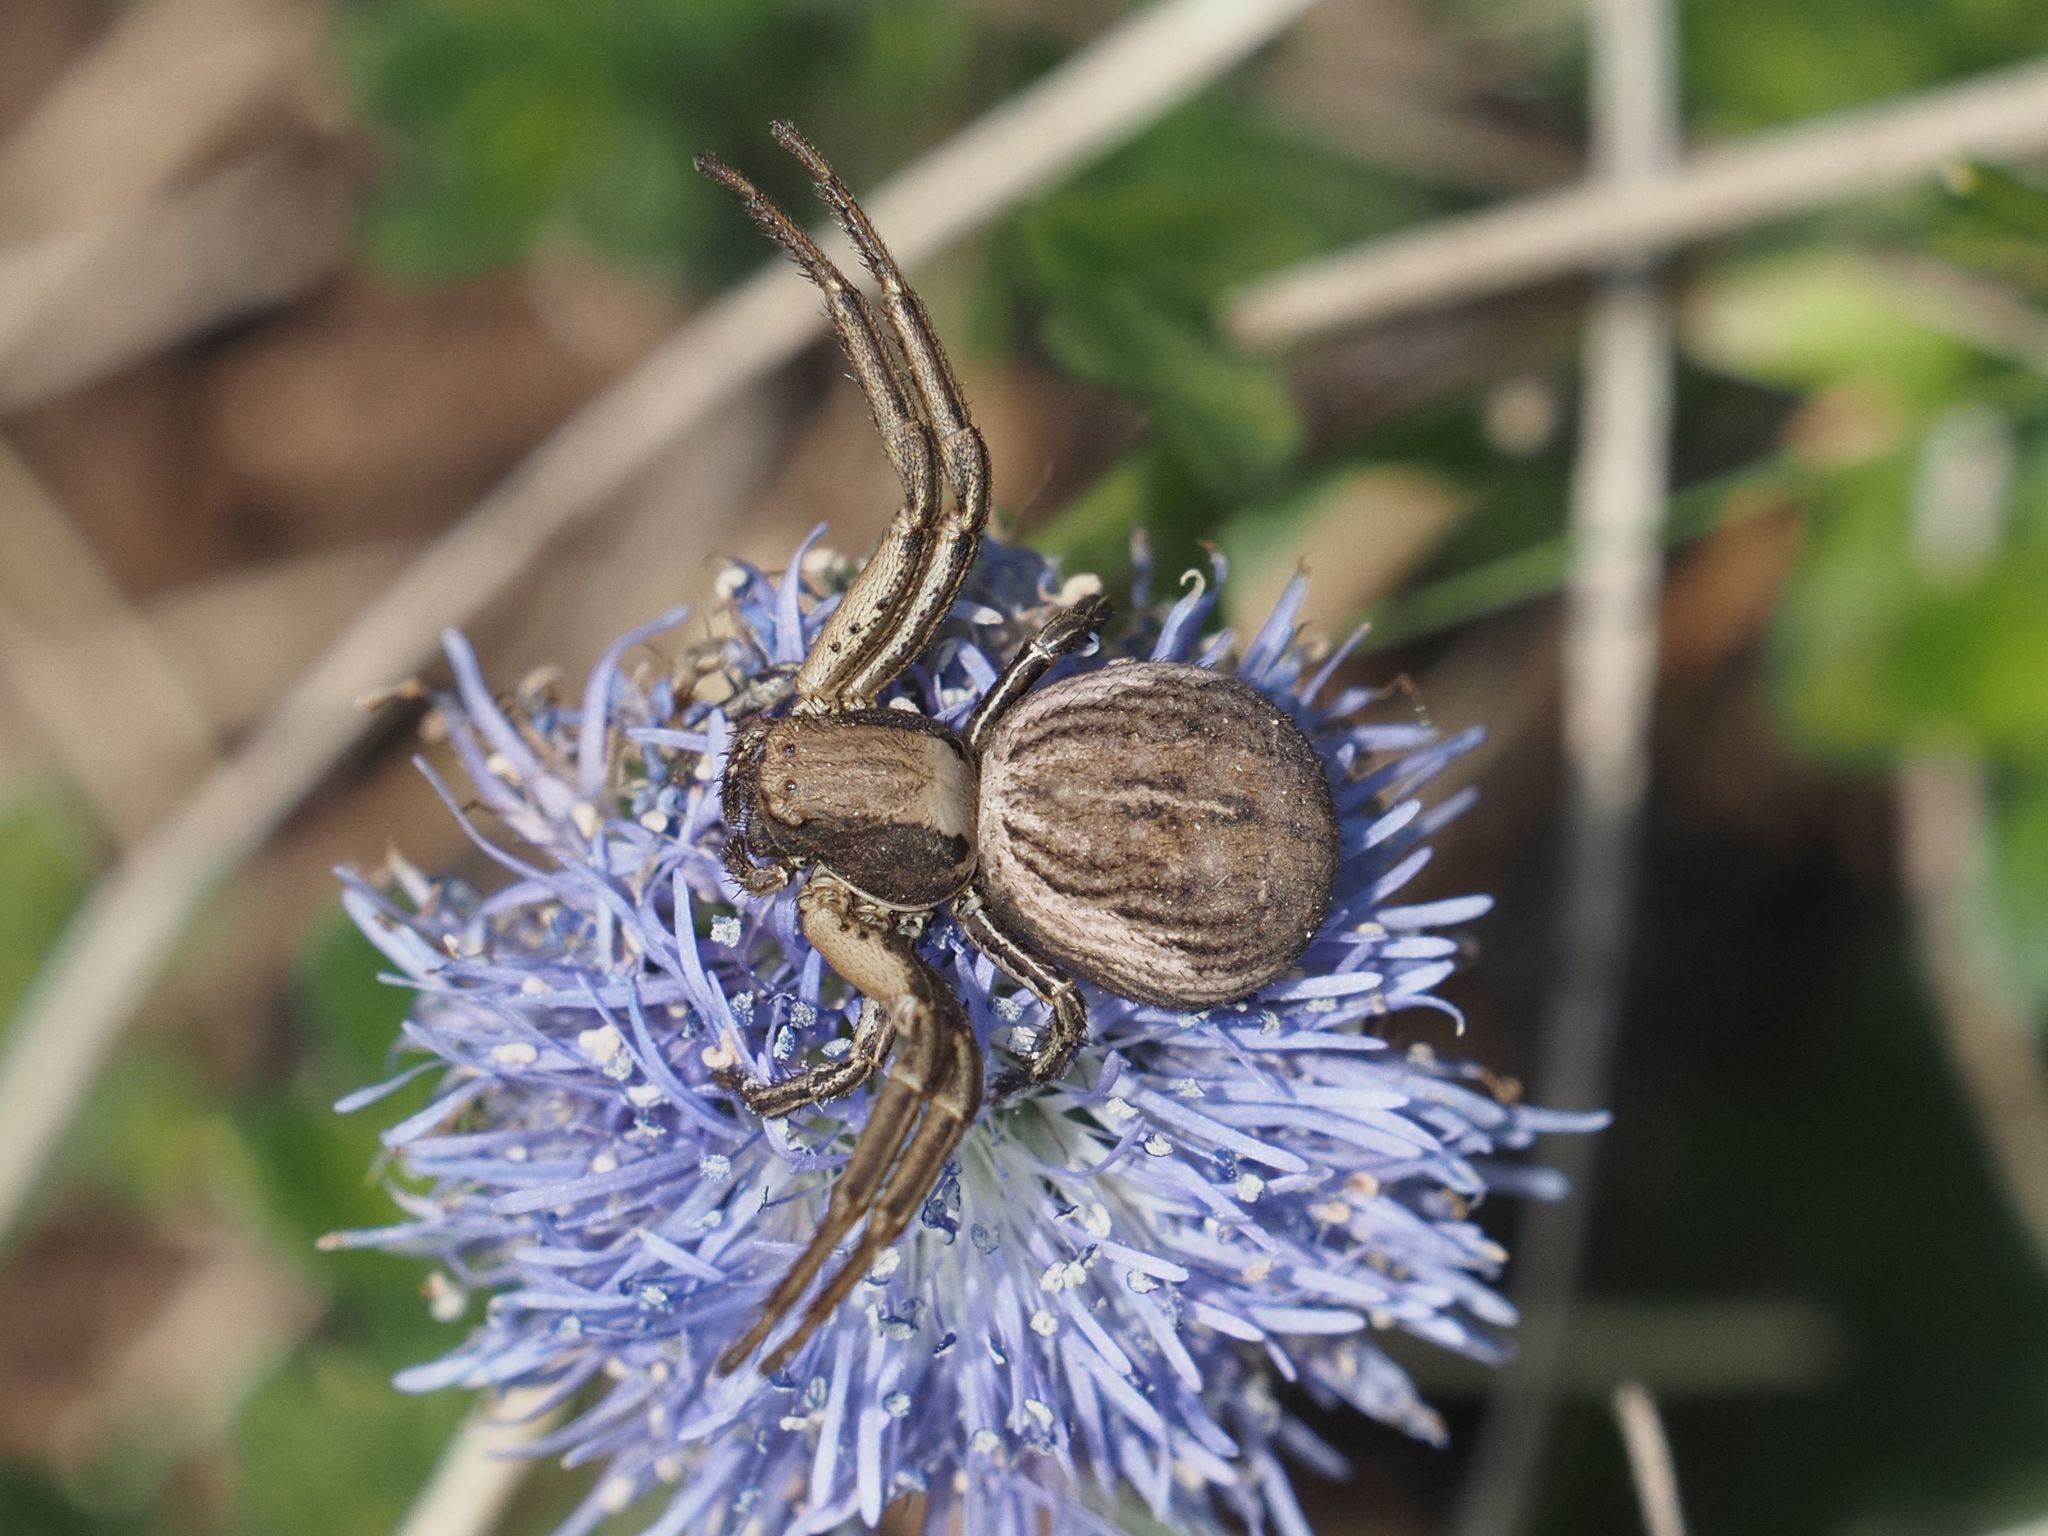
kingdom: Animalia
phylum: Arthropoda
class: Arachnida
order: Araneae
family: Thomisidae
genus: Spiracme
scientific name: Spiracme striatipes
